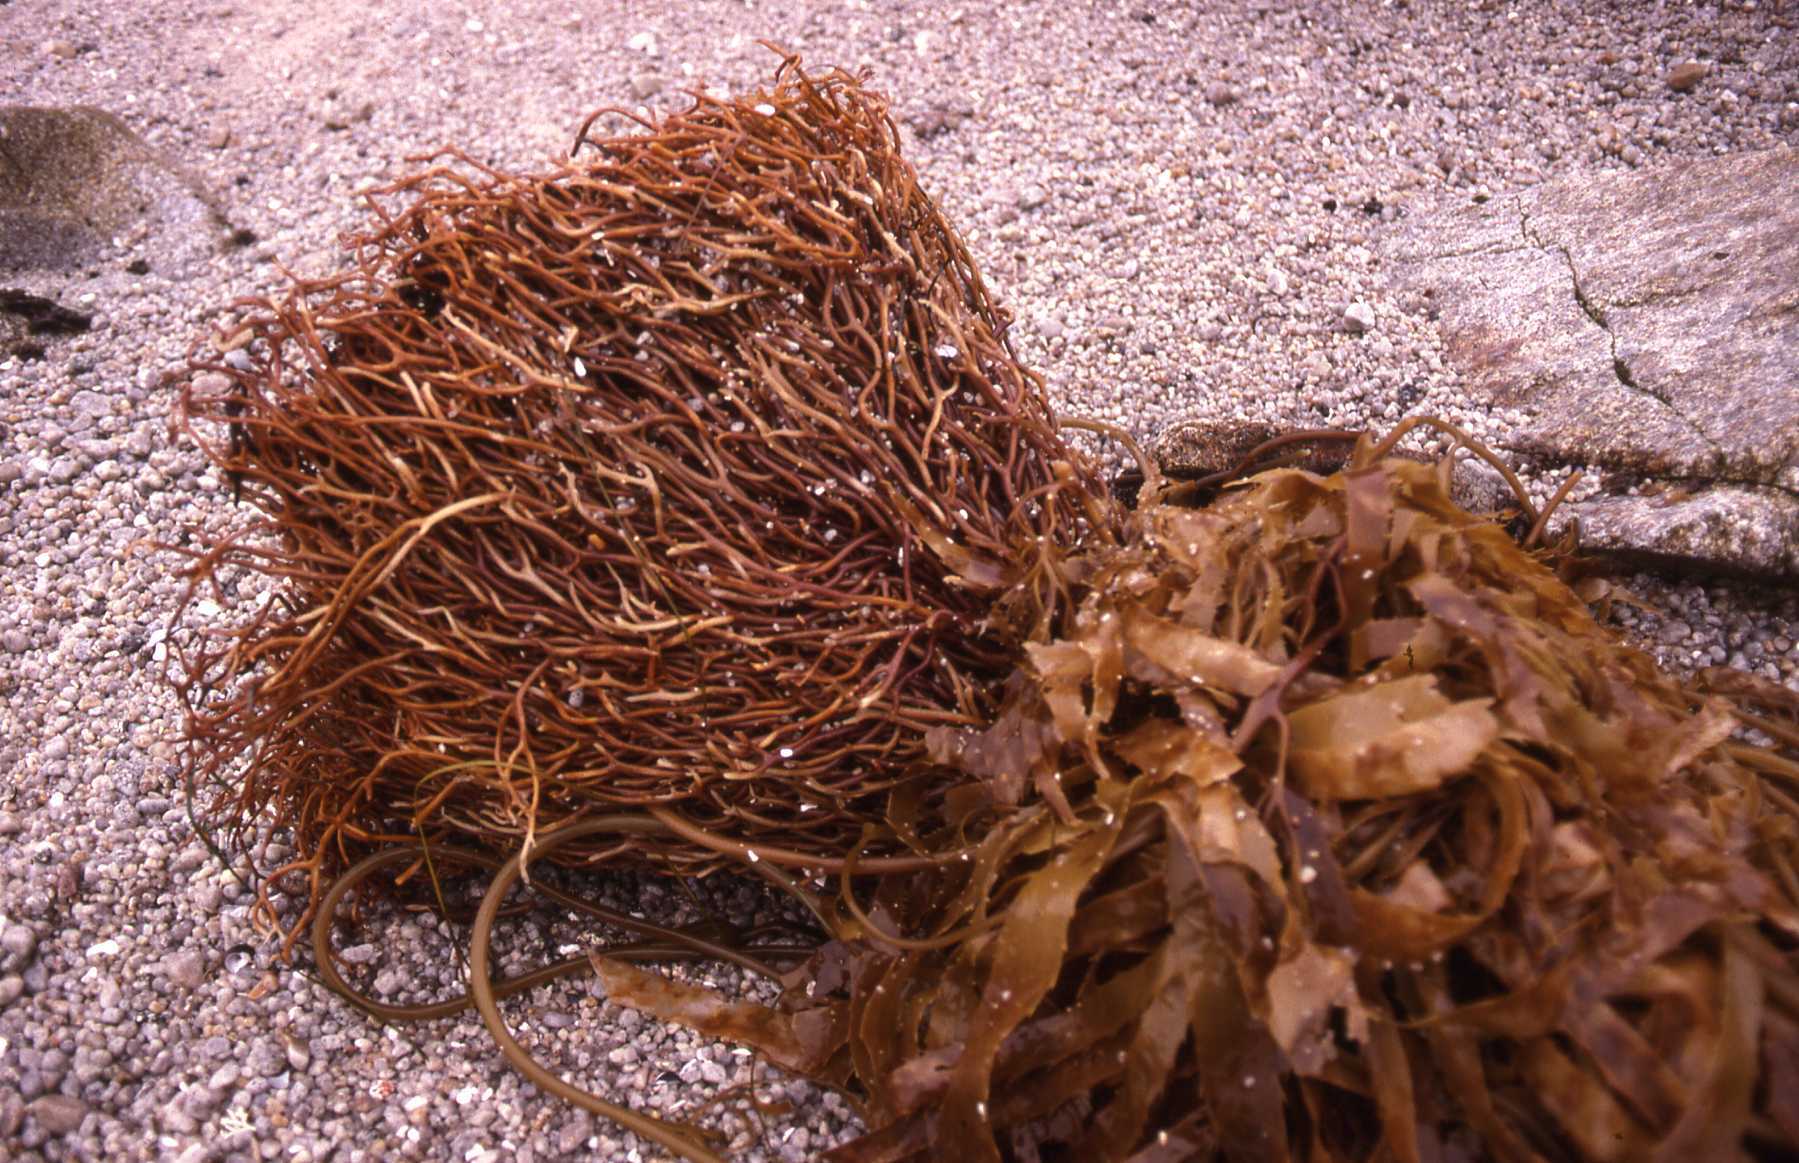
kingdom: Chromista
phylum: Ochrophyta
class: Phaeophyceae
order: Laminariales
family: Laminariaceae
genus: Macrocystis
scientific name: Macrocystis pyrifera
